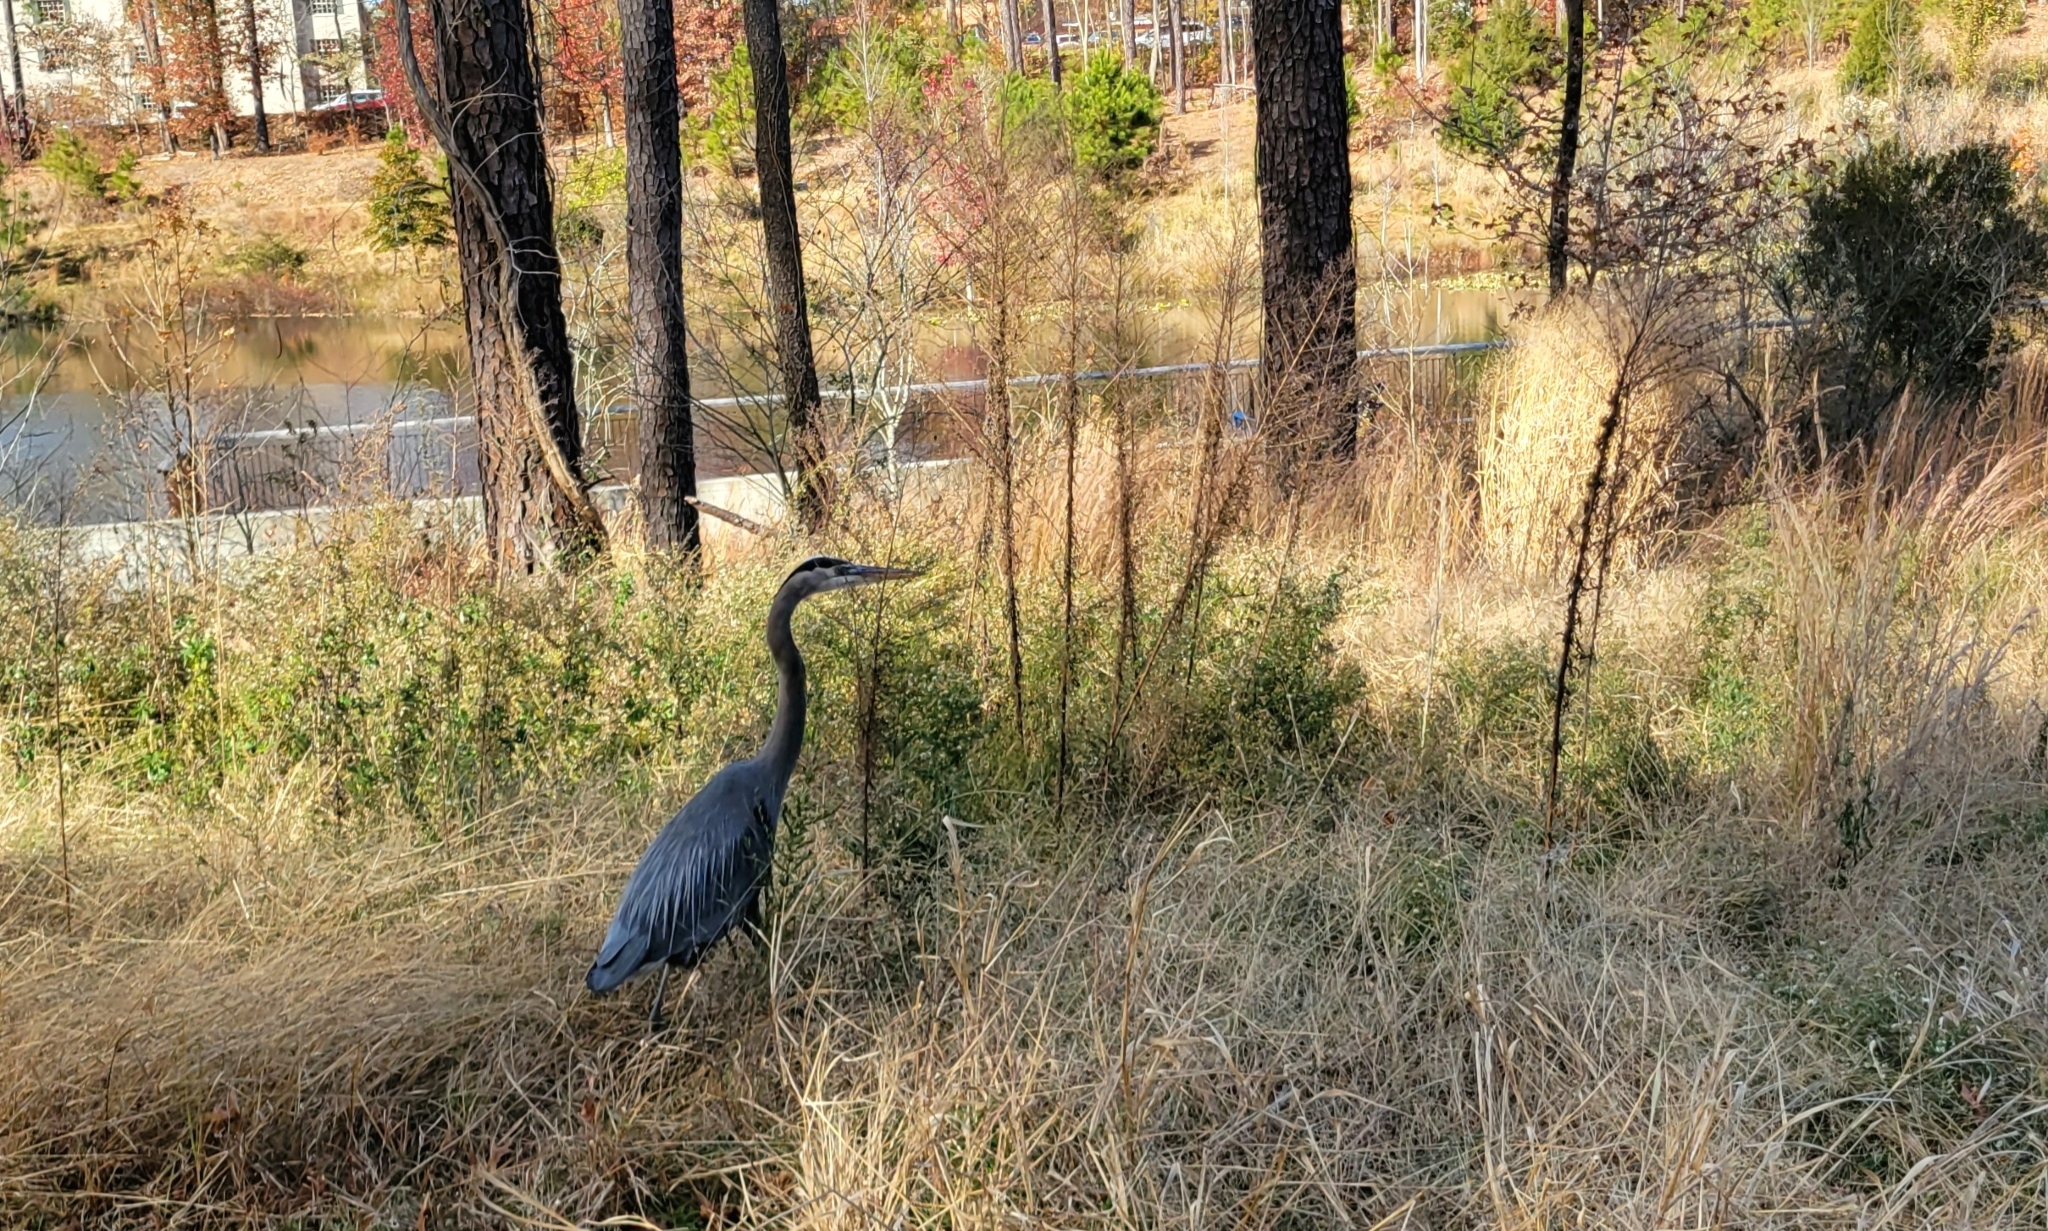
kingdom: Animalia
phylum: Chordata
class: Aves
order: Pelecaniformes
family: Ardeidae
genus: Ardea
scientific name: Ardea herodias
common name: Great blue heron
